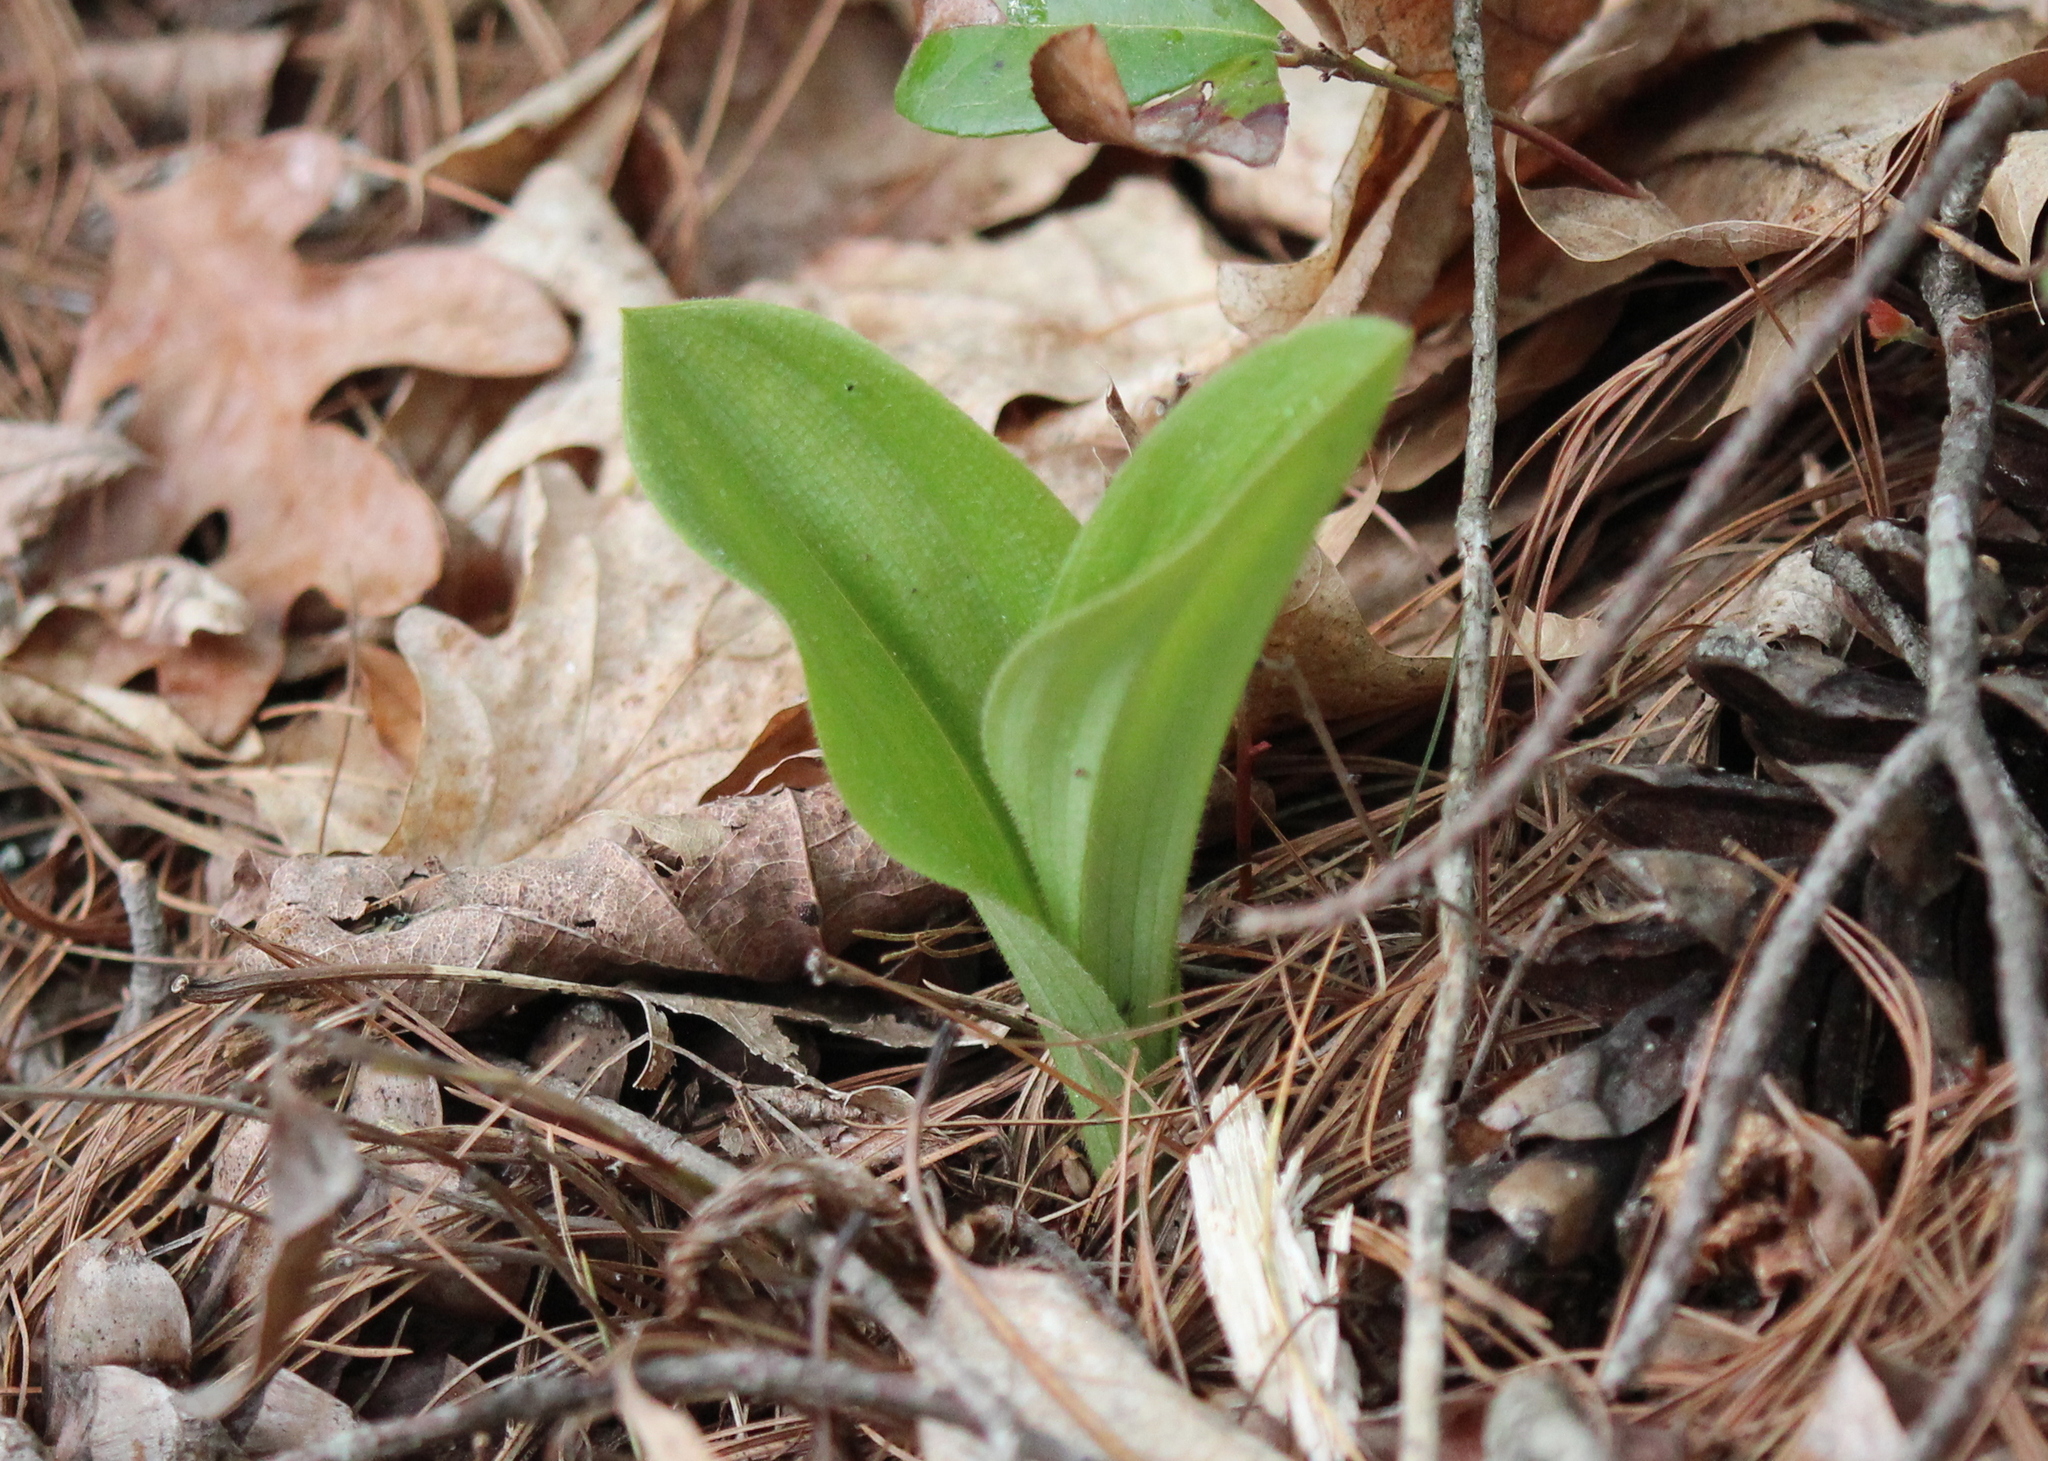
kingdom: Plantae
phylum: Tracheophyta
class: Liliopsida
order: Asparagales
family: Orchidaceae
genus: Cypripedium
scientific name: Cypripedium acaule
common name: Pink lady's-slipper
